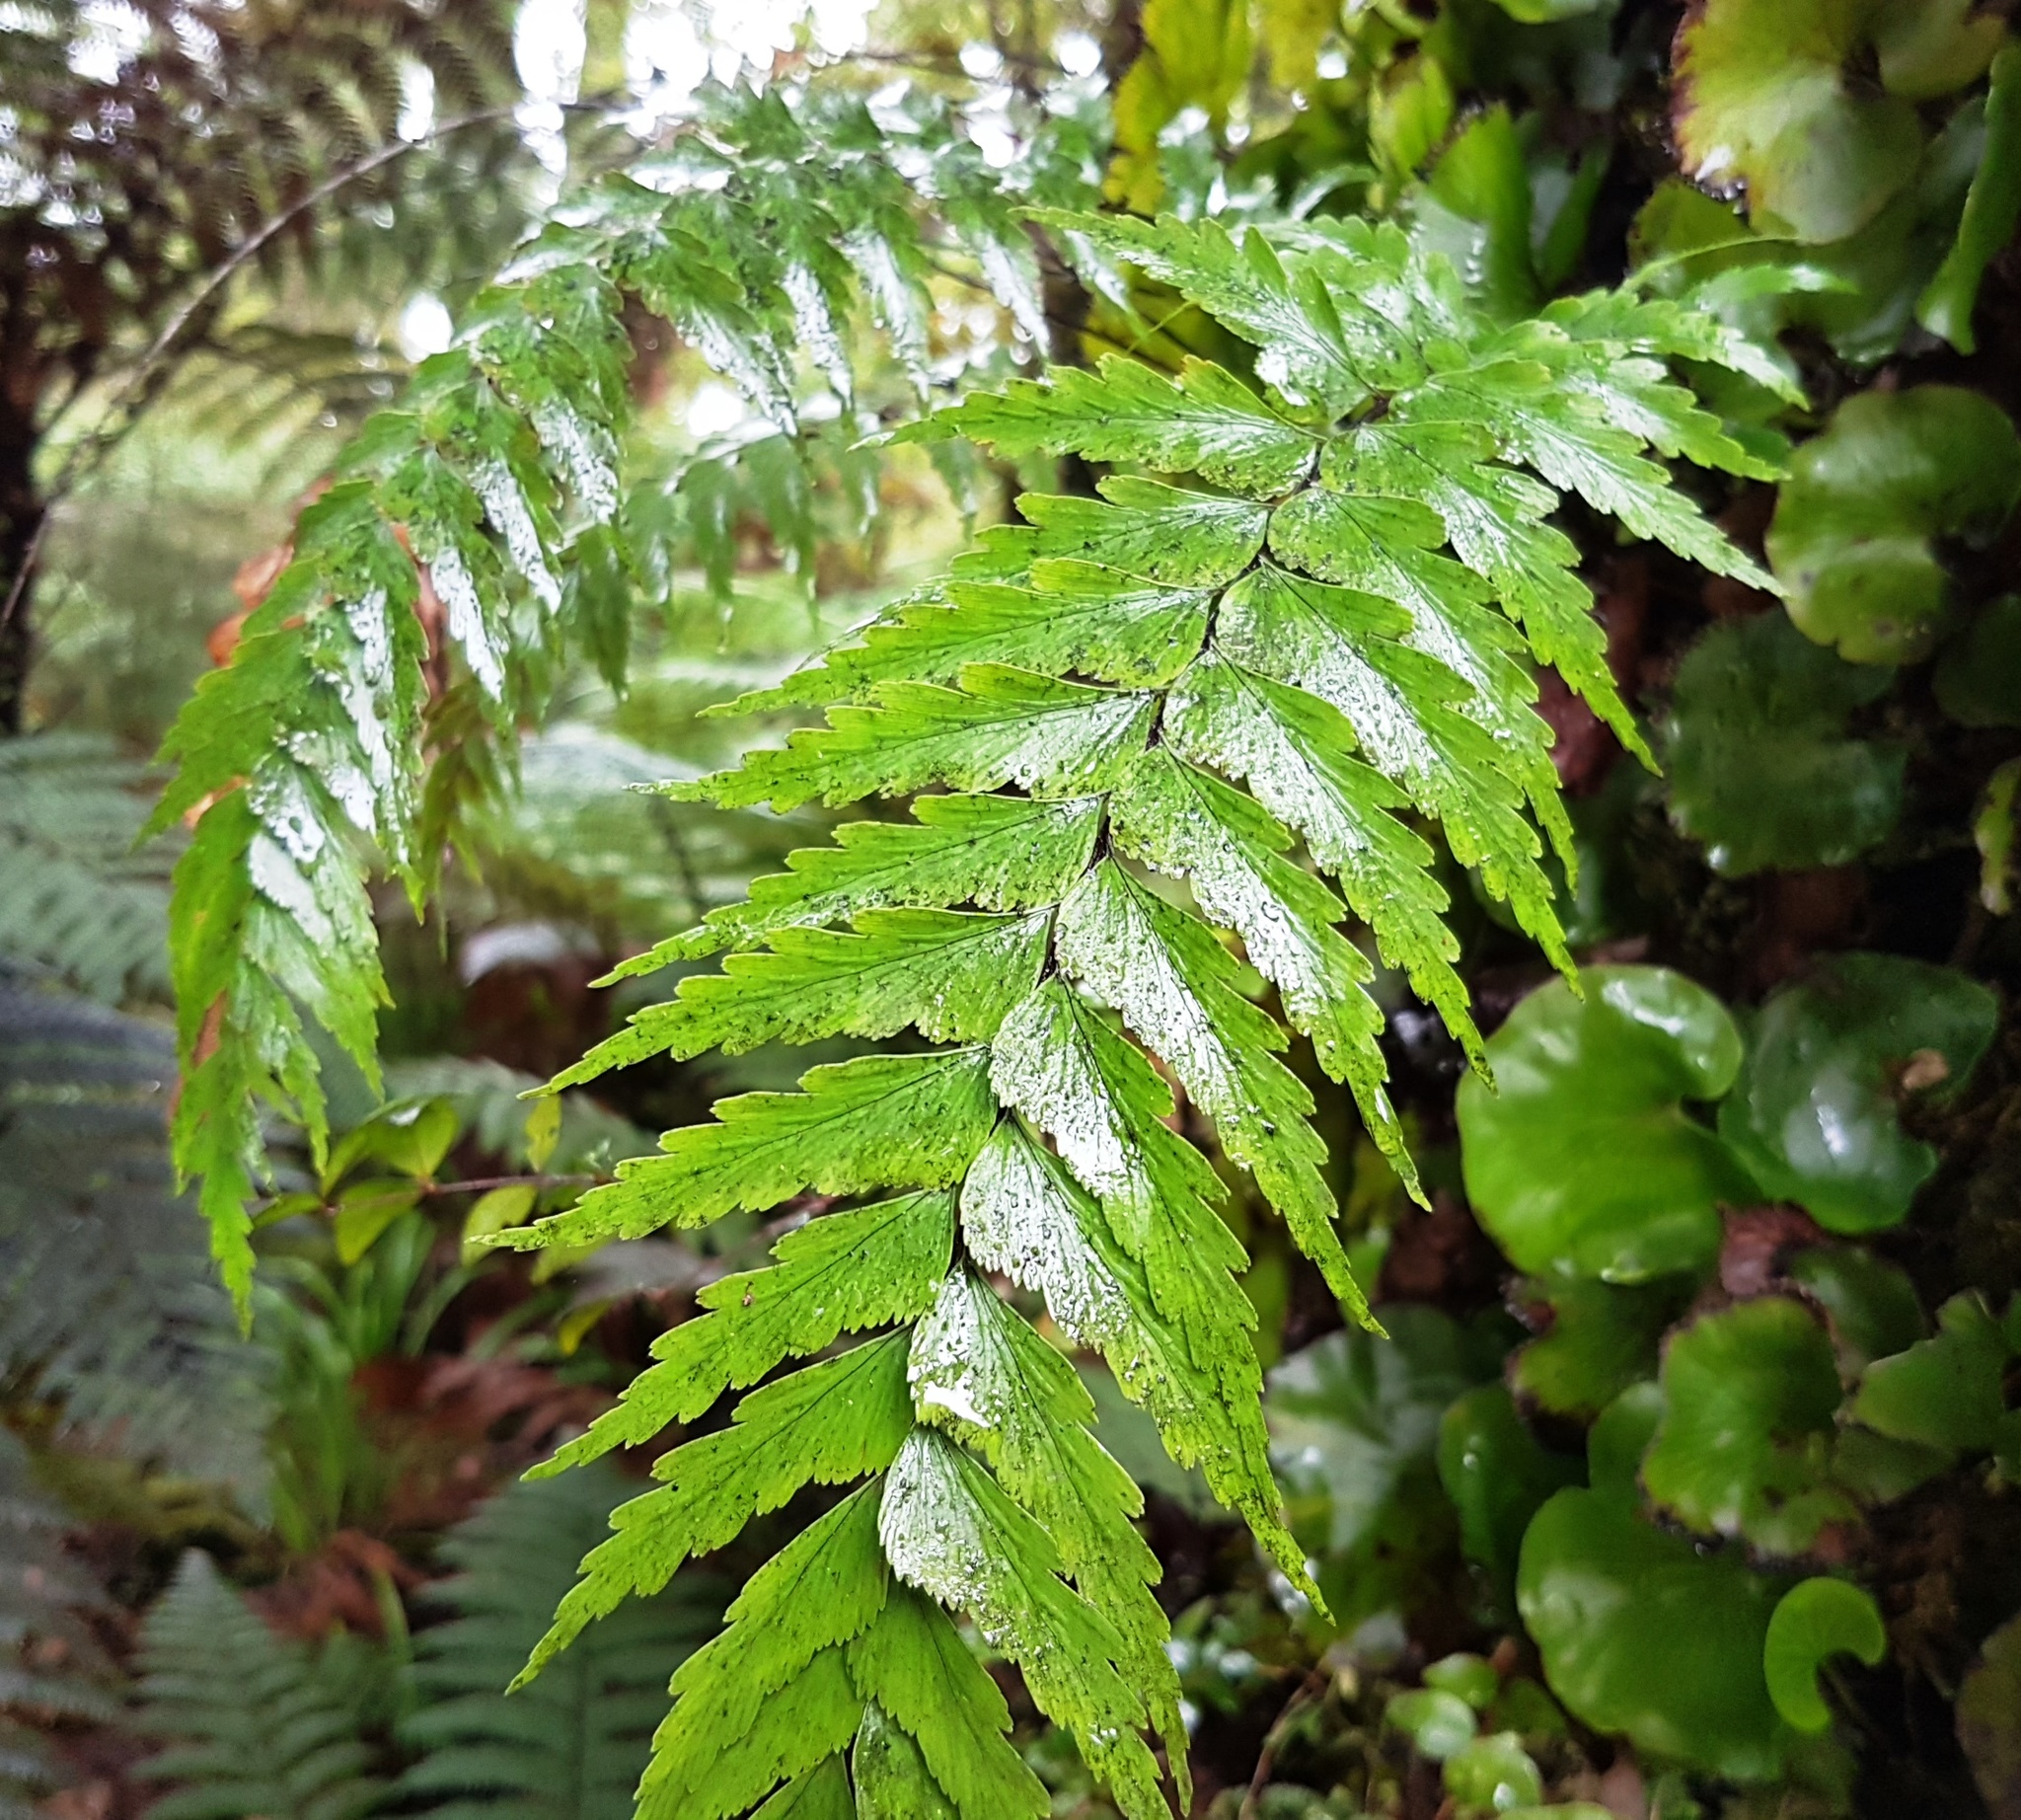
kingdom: Plantae
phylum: Tracheophyta
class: Polypodiopsida
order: Polypodiales
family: Aspleniaceae
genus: Asplenium
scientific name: Asplenium polyodon
